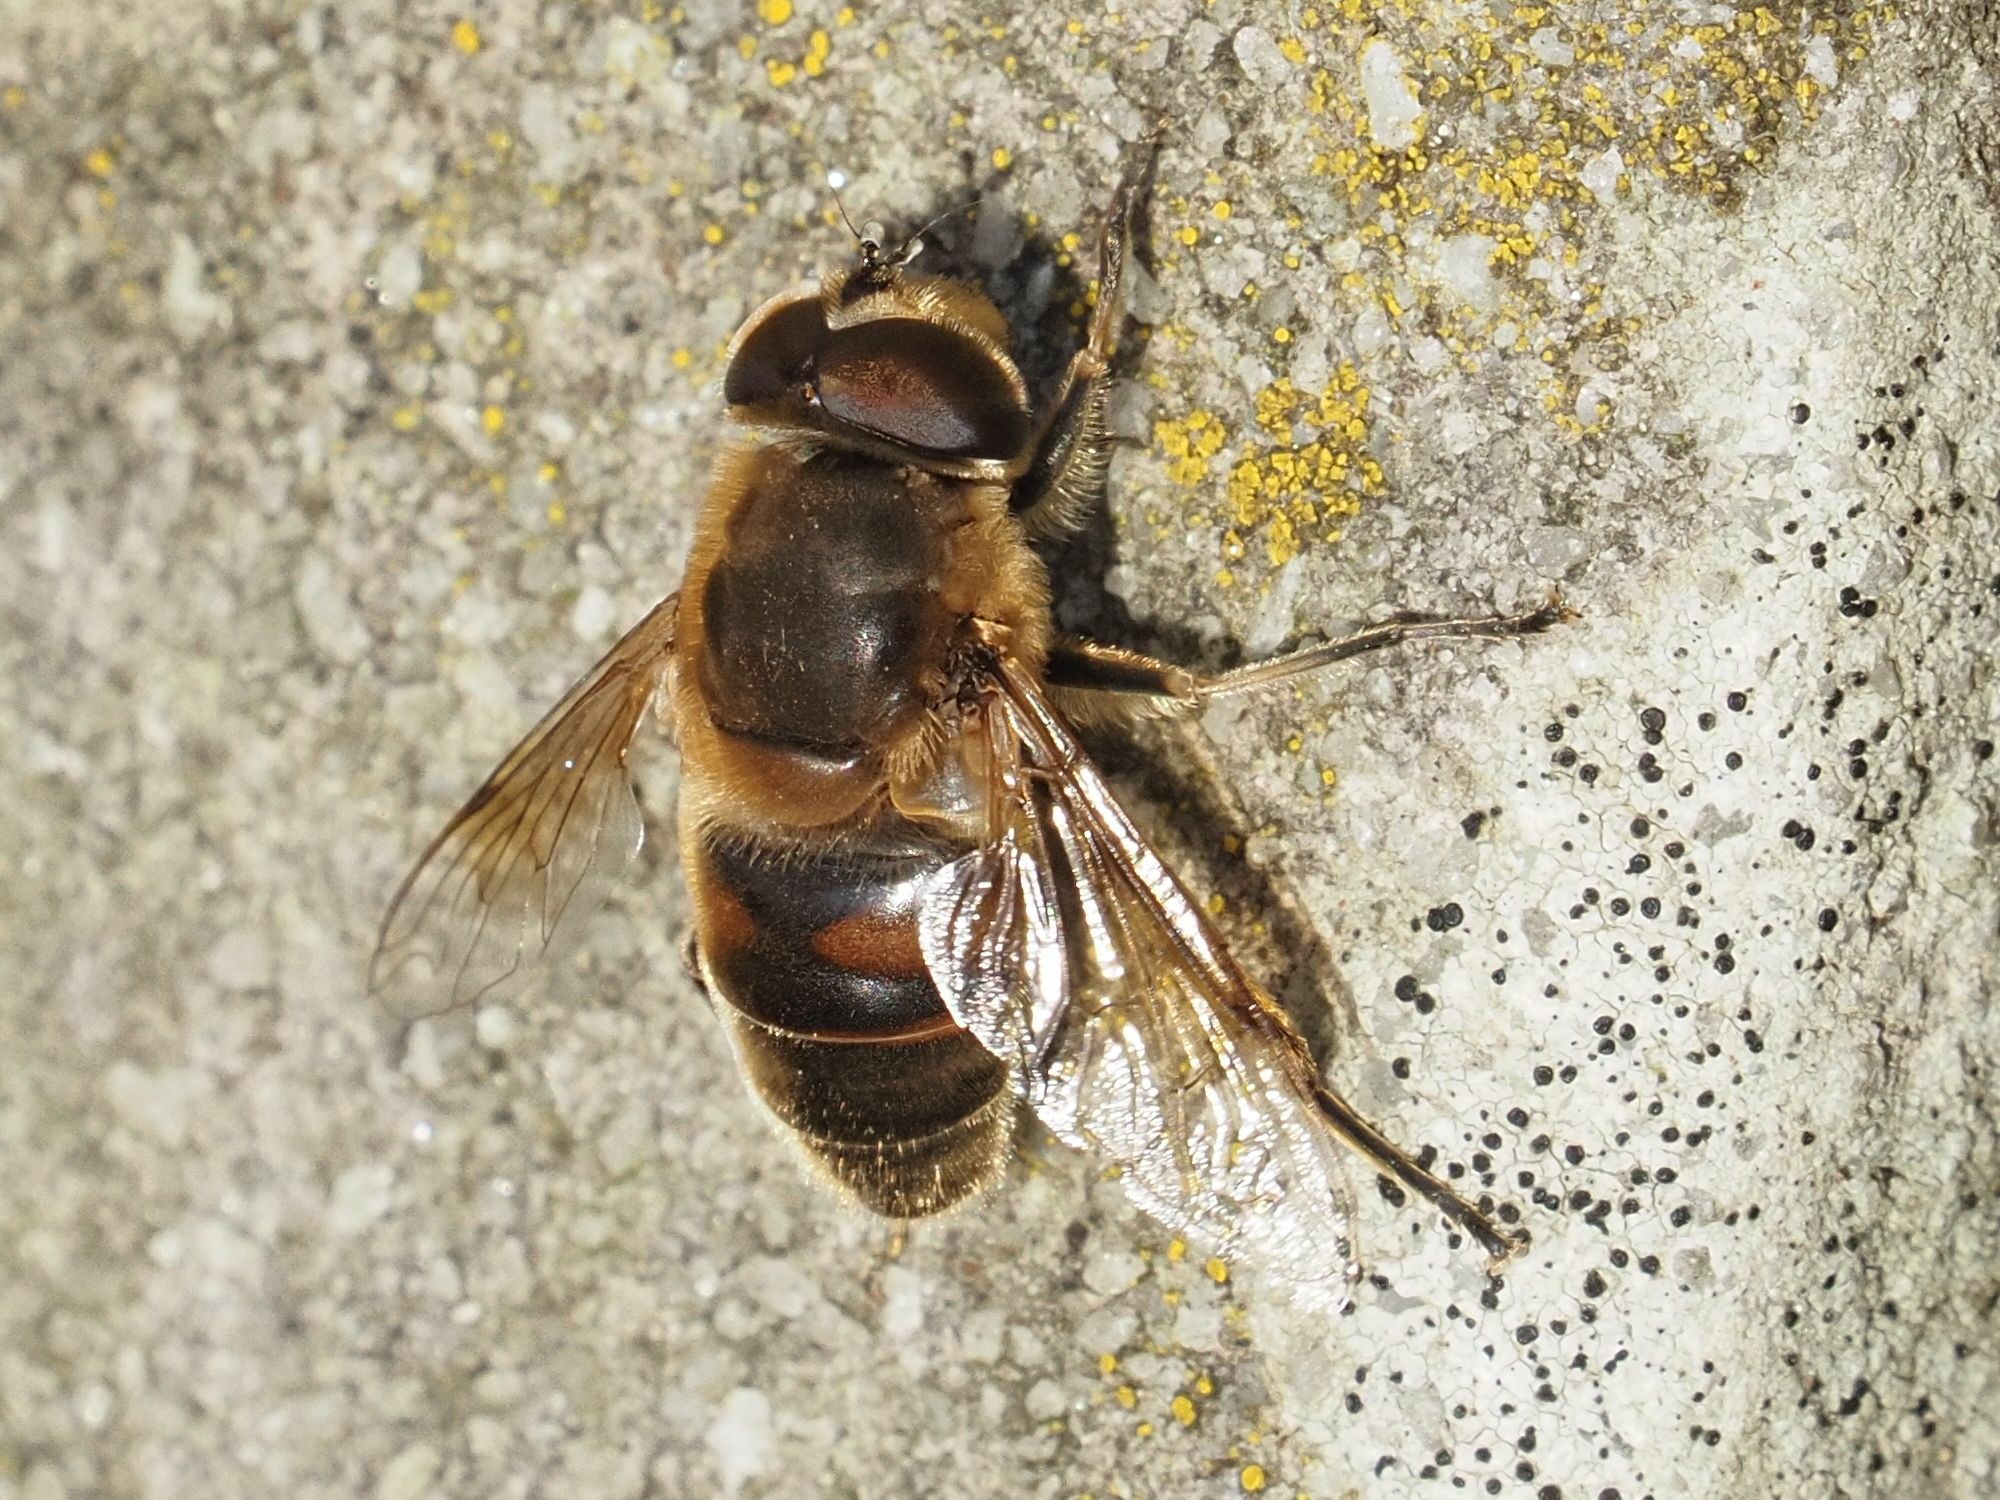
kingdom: Animalia
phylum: Arthropoda
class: Insecta
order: Diptera
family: Syrphidae
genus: Eristalis
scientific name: Eristalis tenax
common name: Drone fly
